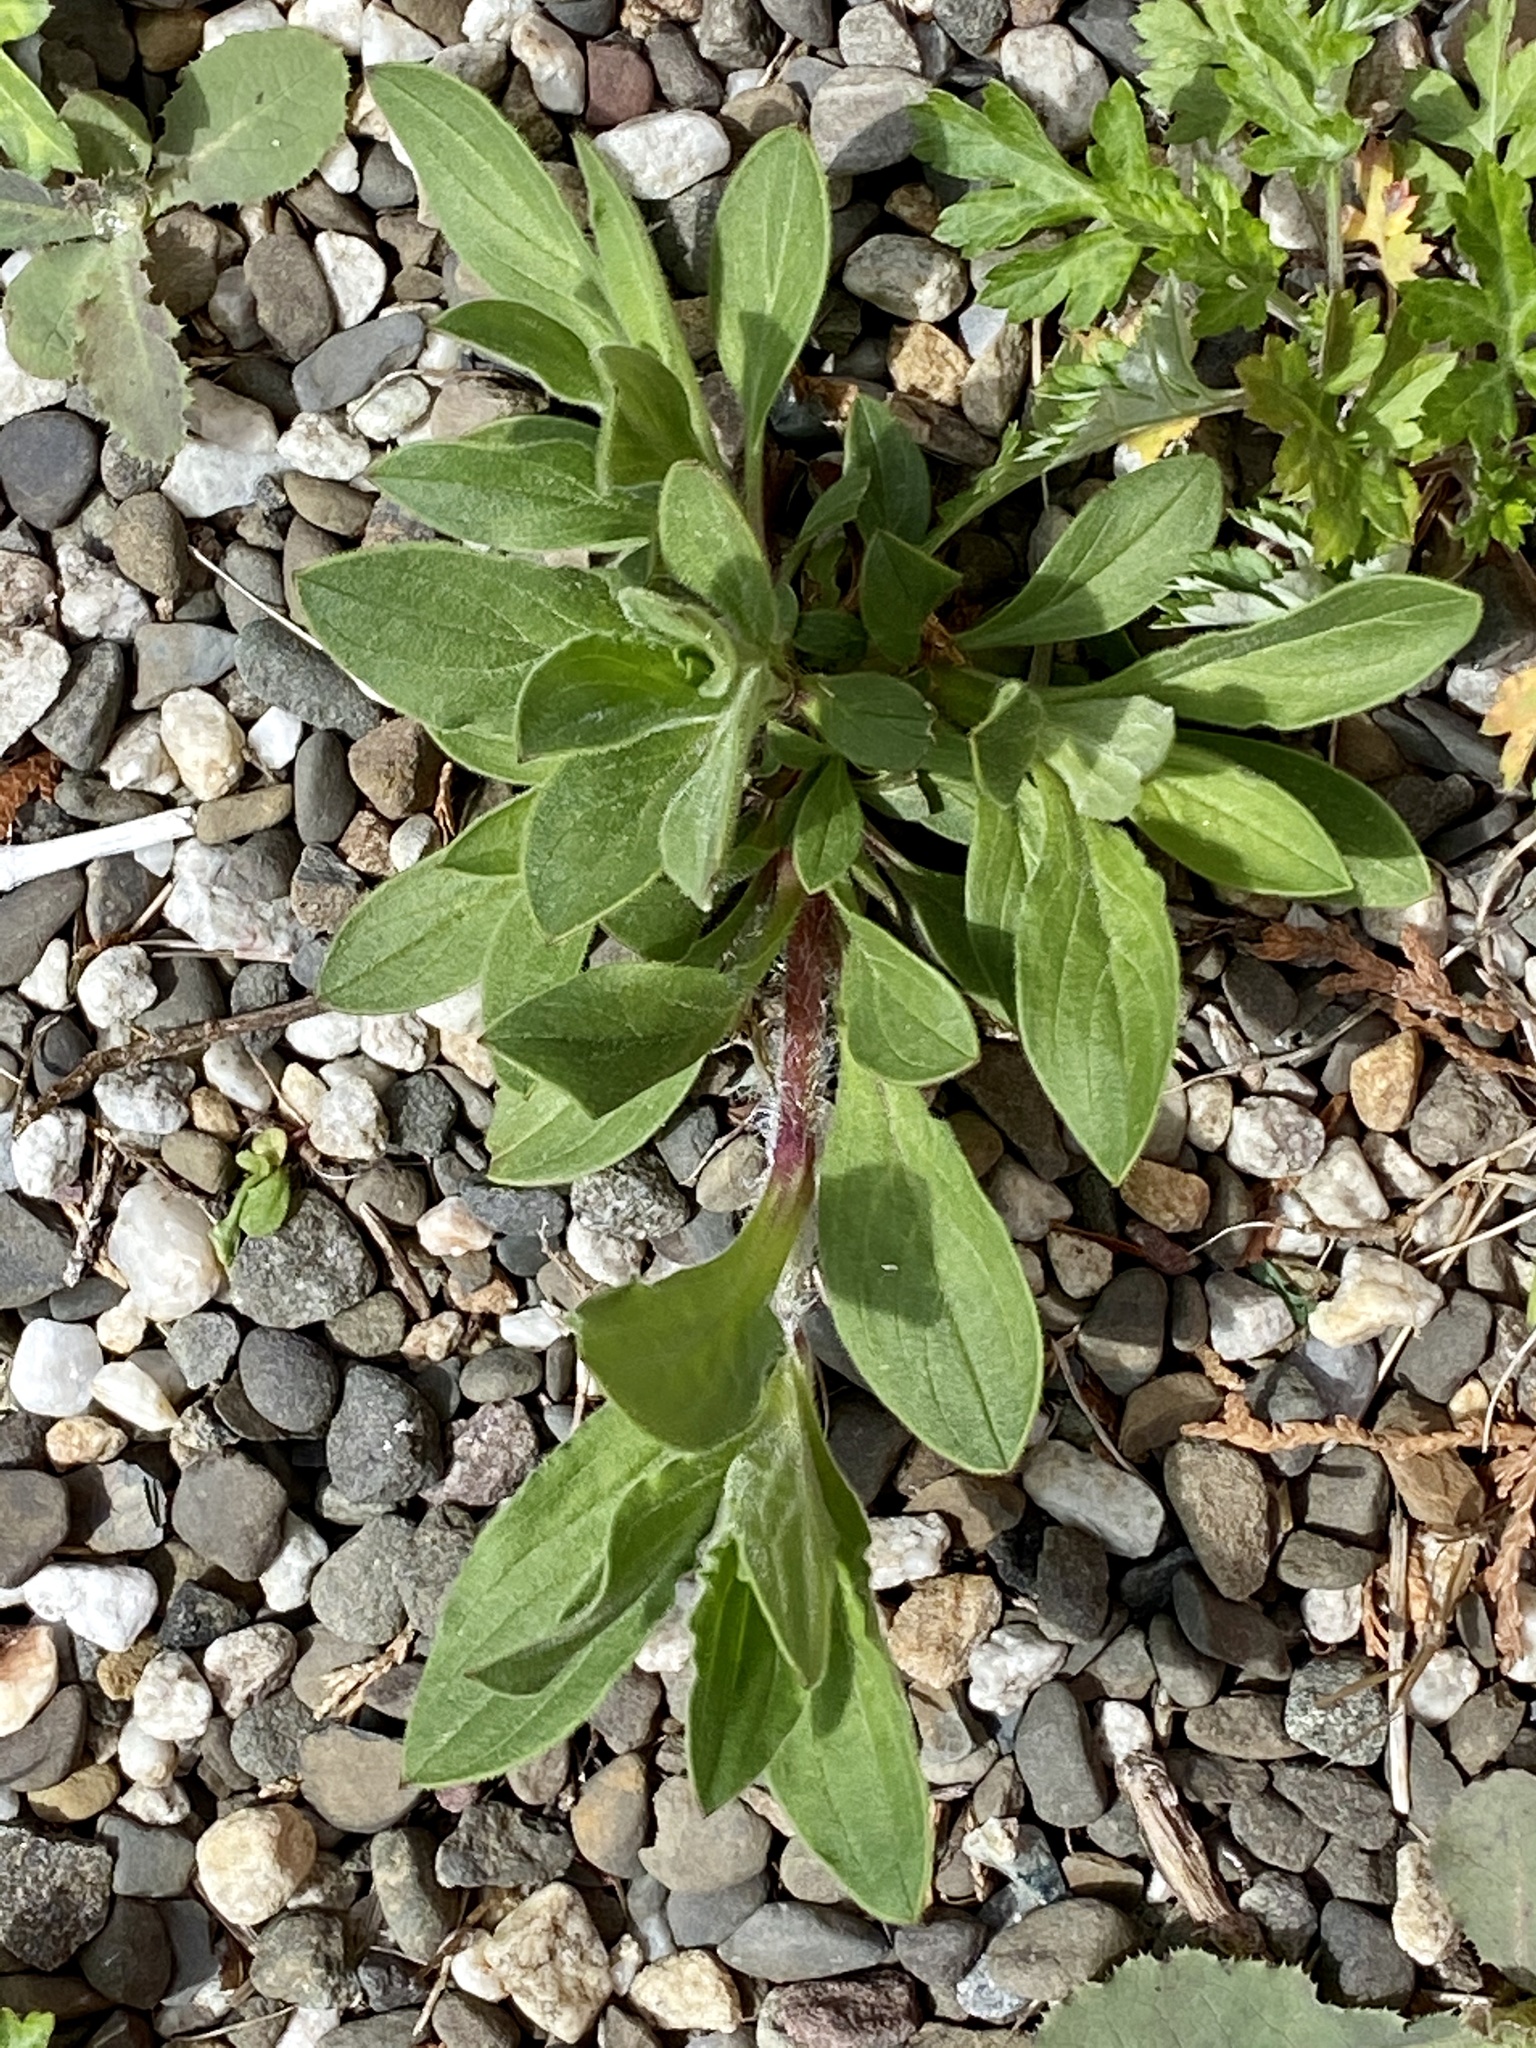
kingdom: Plantae
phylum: Tracheophyta
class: Magnoliopsida
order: Caryophyllales
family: Caryophyllaceae
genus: Silene
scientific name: Silene latifolia
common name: White campion
